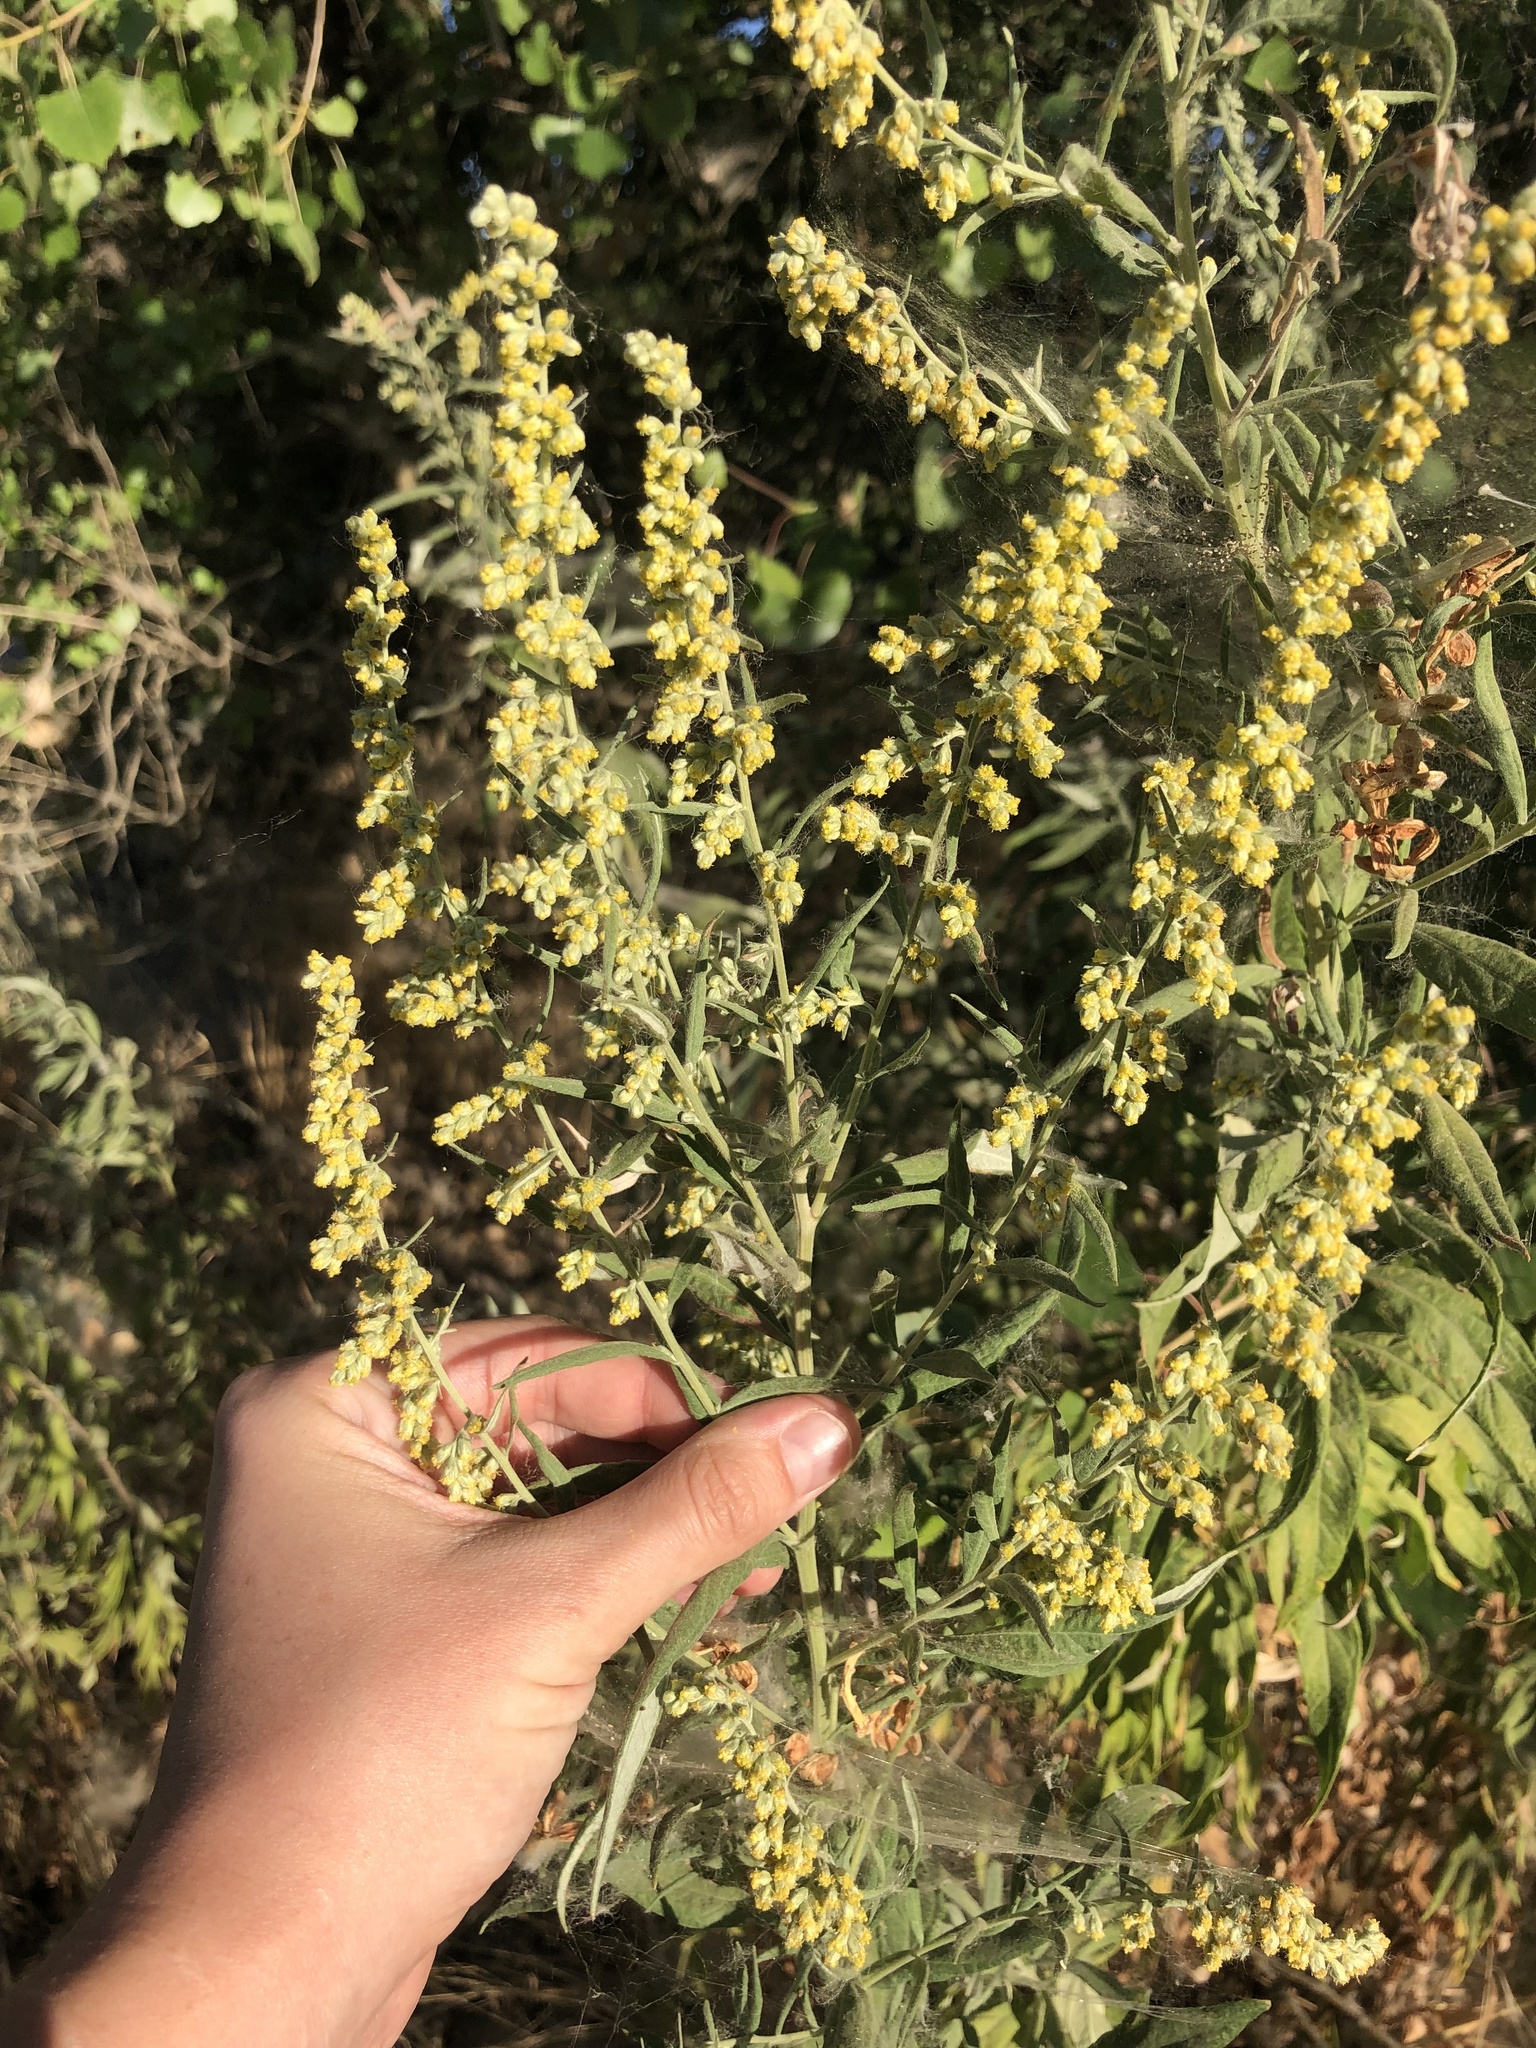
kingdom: Plantae
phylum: Tracheophyta
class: Magnoliopsida
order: Asterales
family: Asteraceae
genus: Artemisia
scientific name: Artemisia douglasiana
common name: Northwest mugwort
